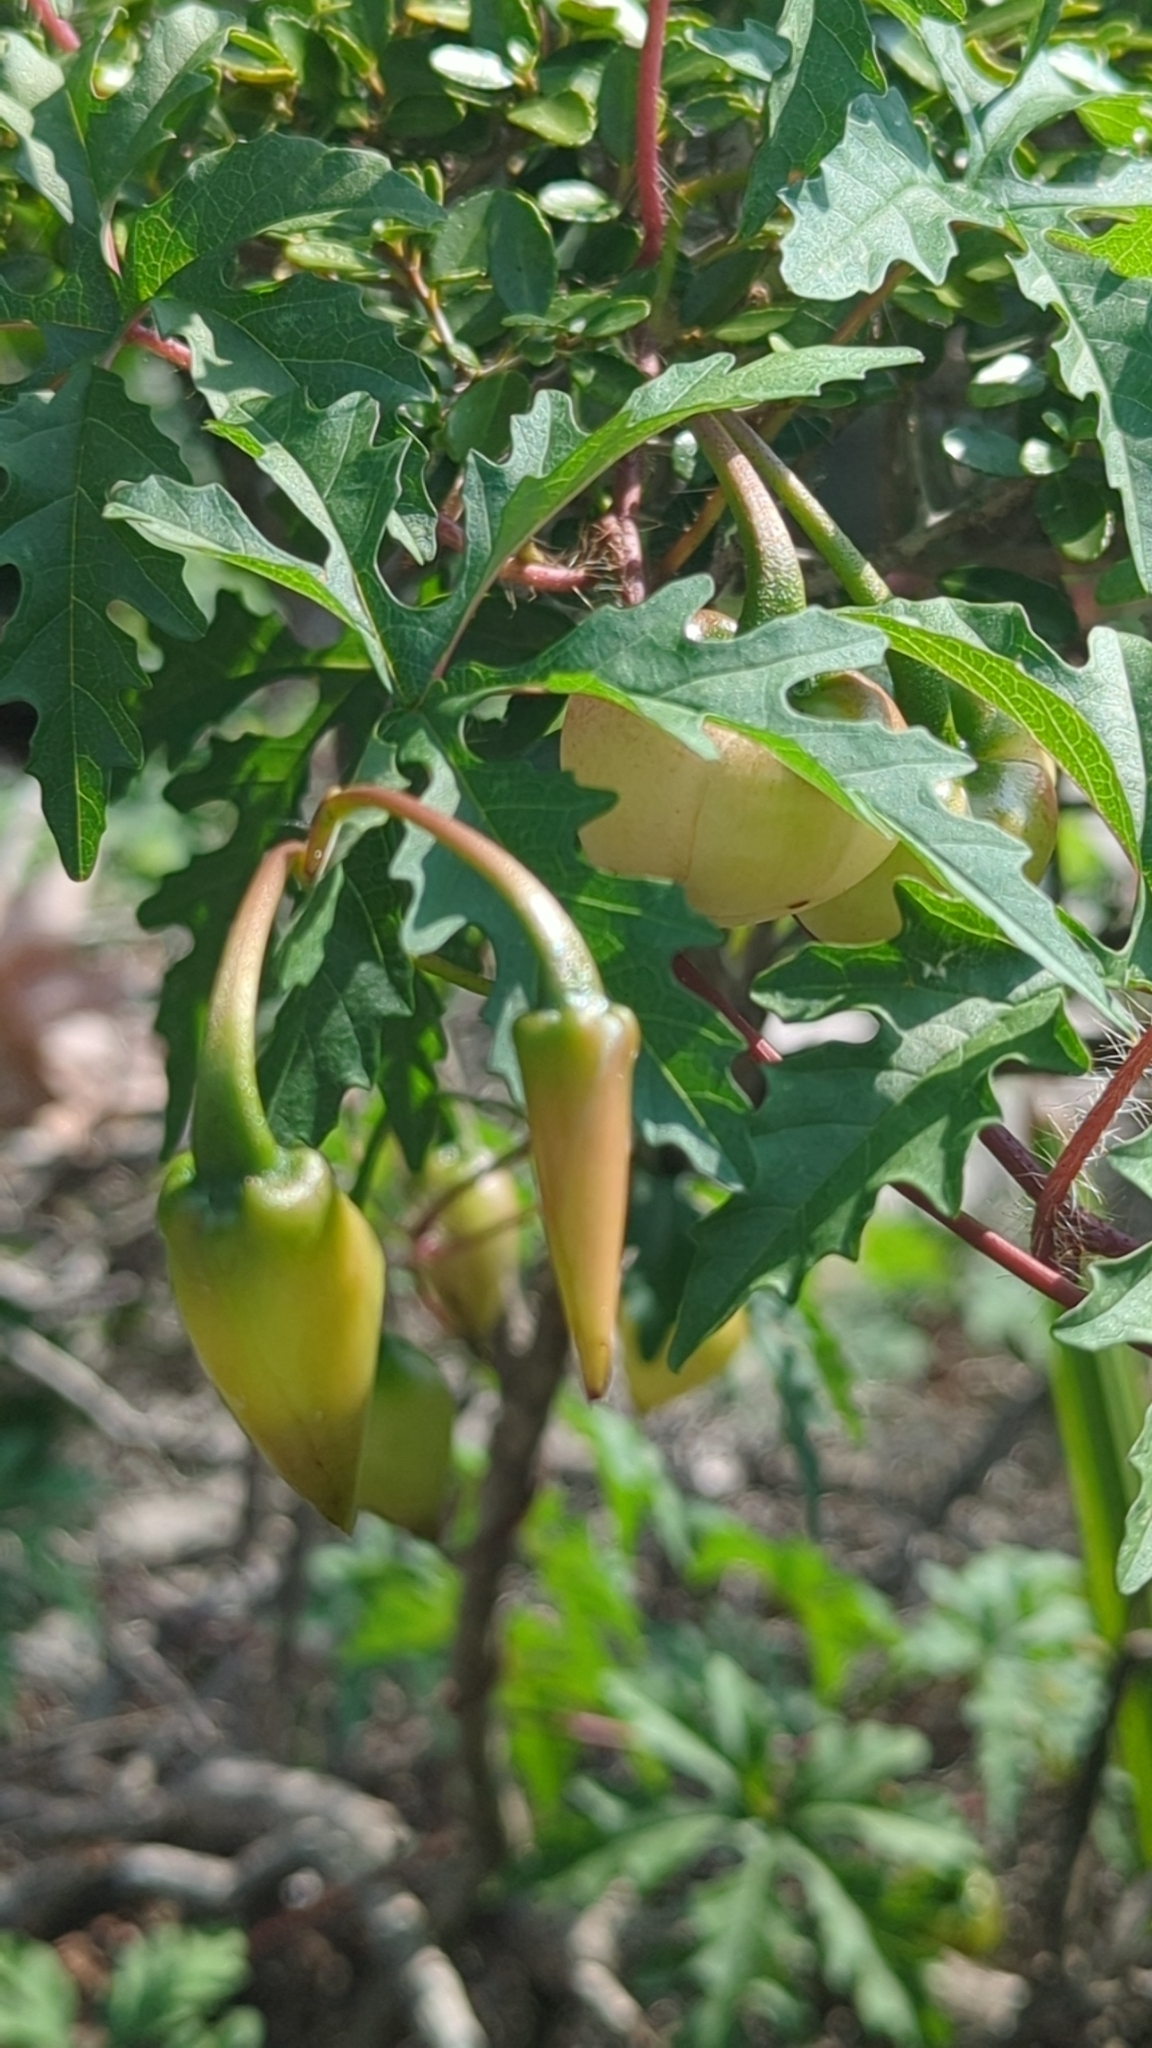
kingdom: Plantae
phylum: Tracheophyta
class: Magnoliopsida
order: Solanales
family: Convolvulaceae
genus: Distimake
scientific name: Distimake dissectus
